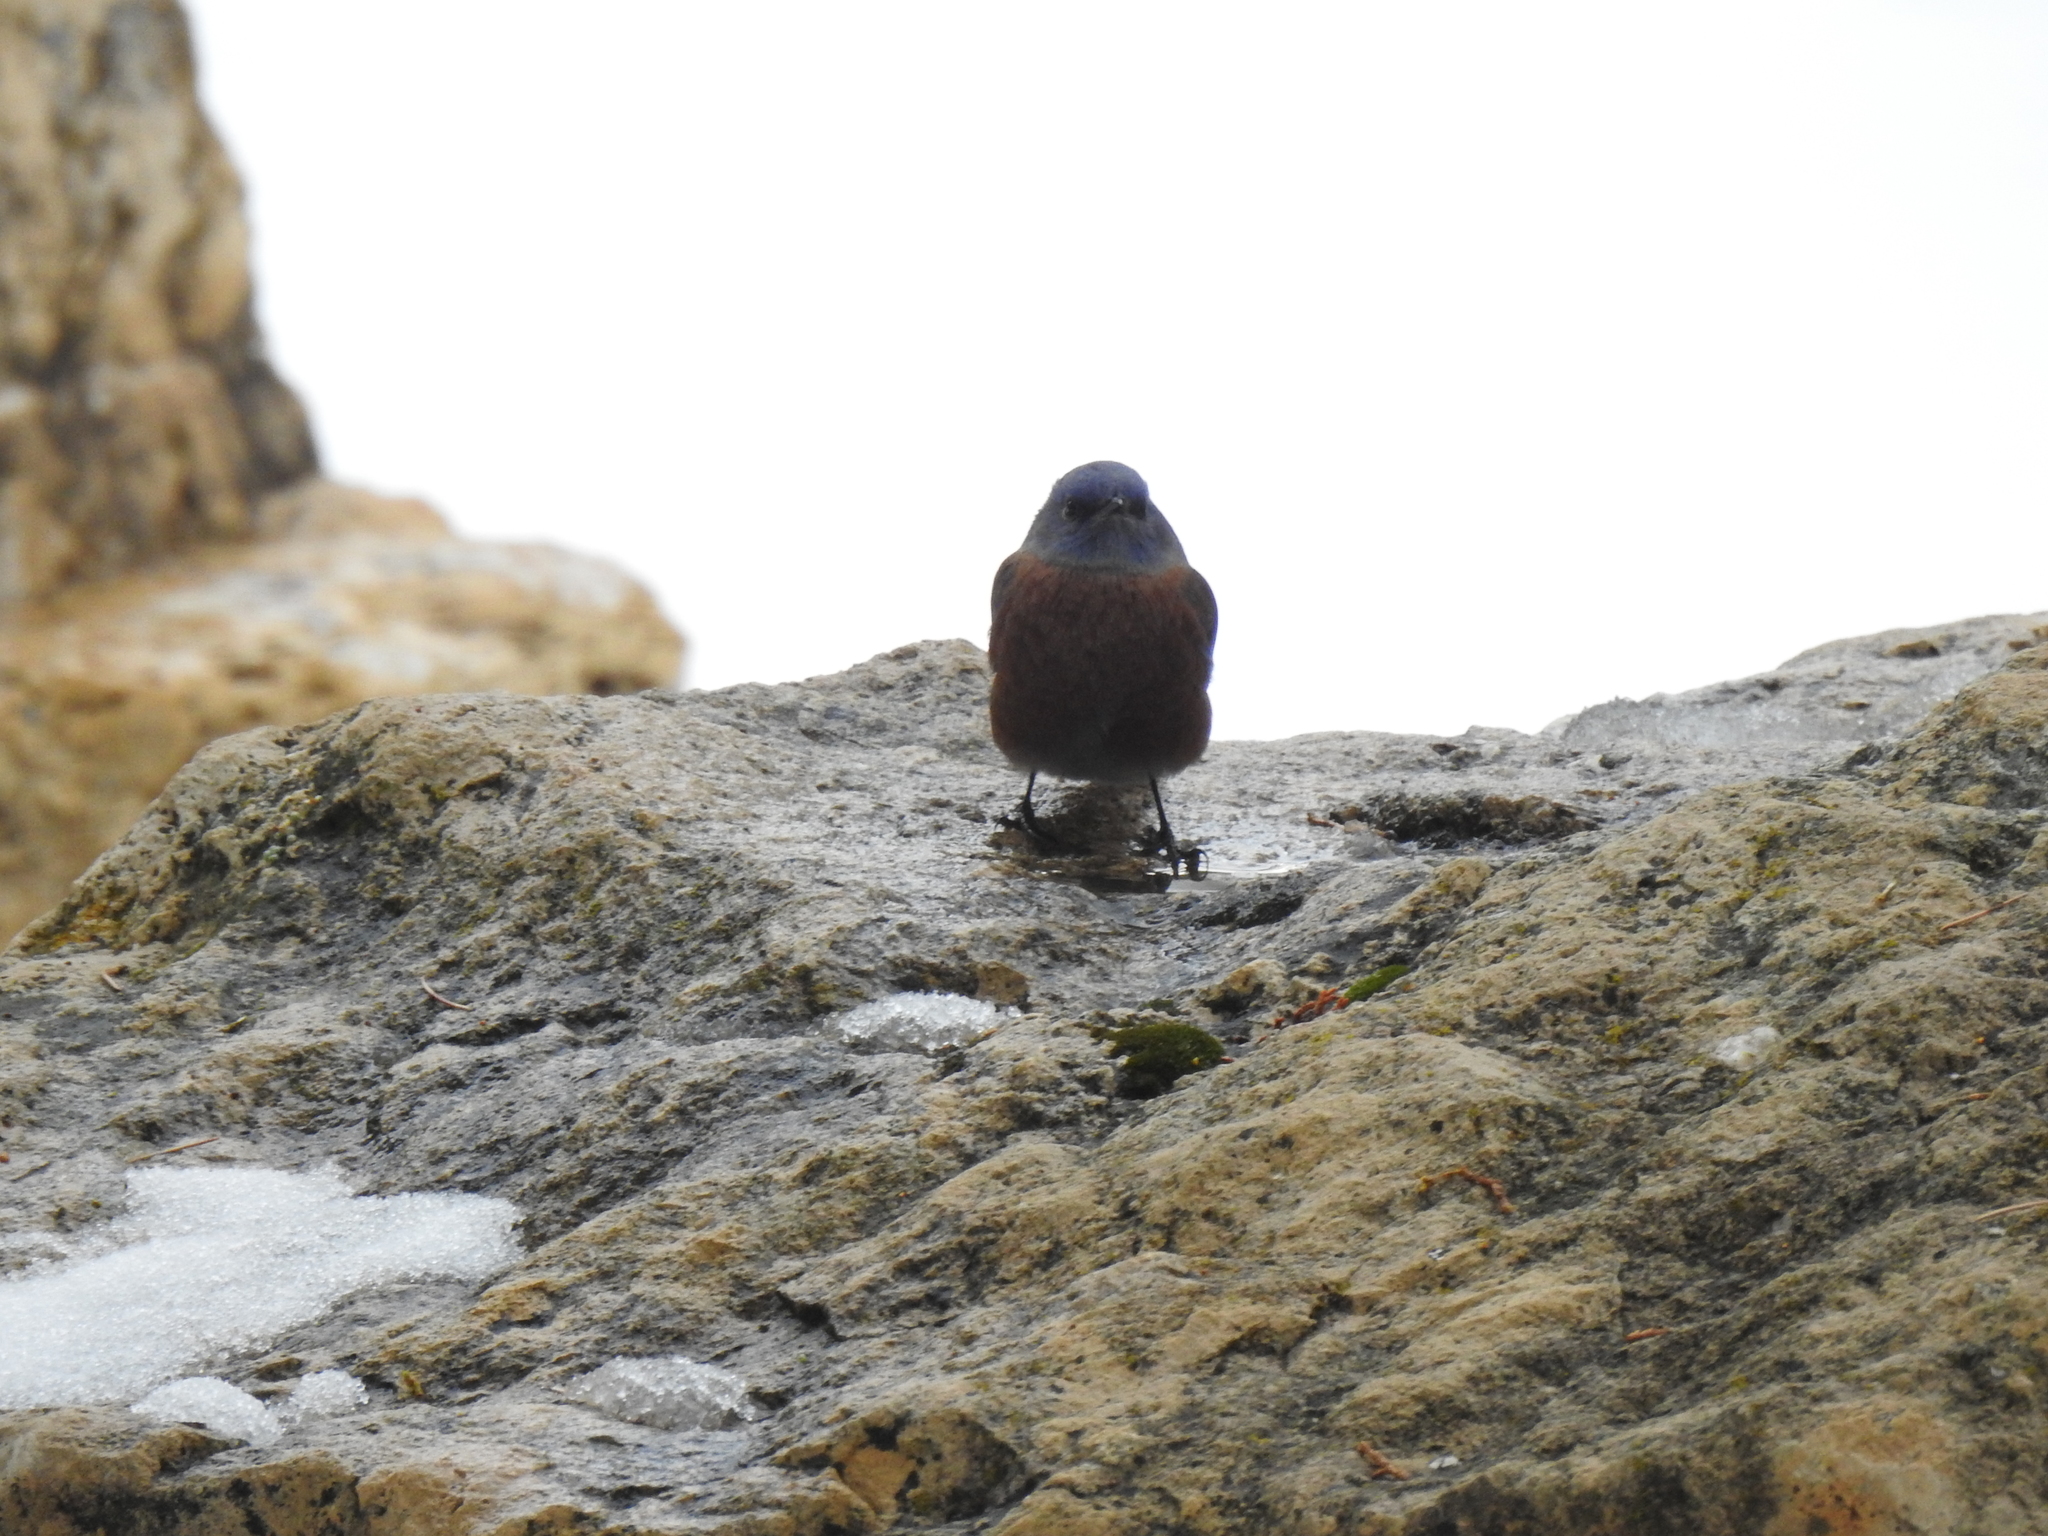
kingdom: Animalia
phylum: Chordata
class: Aves
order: Passeriformes
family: Turdidae
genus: Sialia
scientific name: Sialia mexicana
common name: Western bluebird
